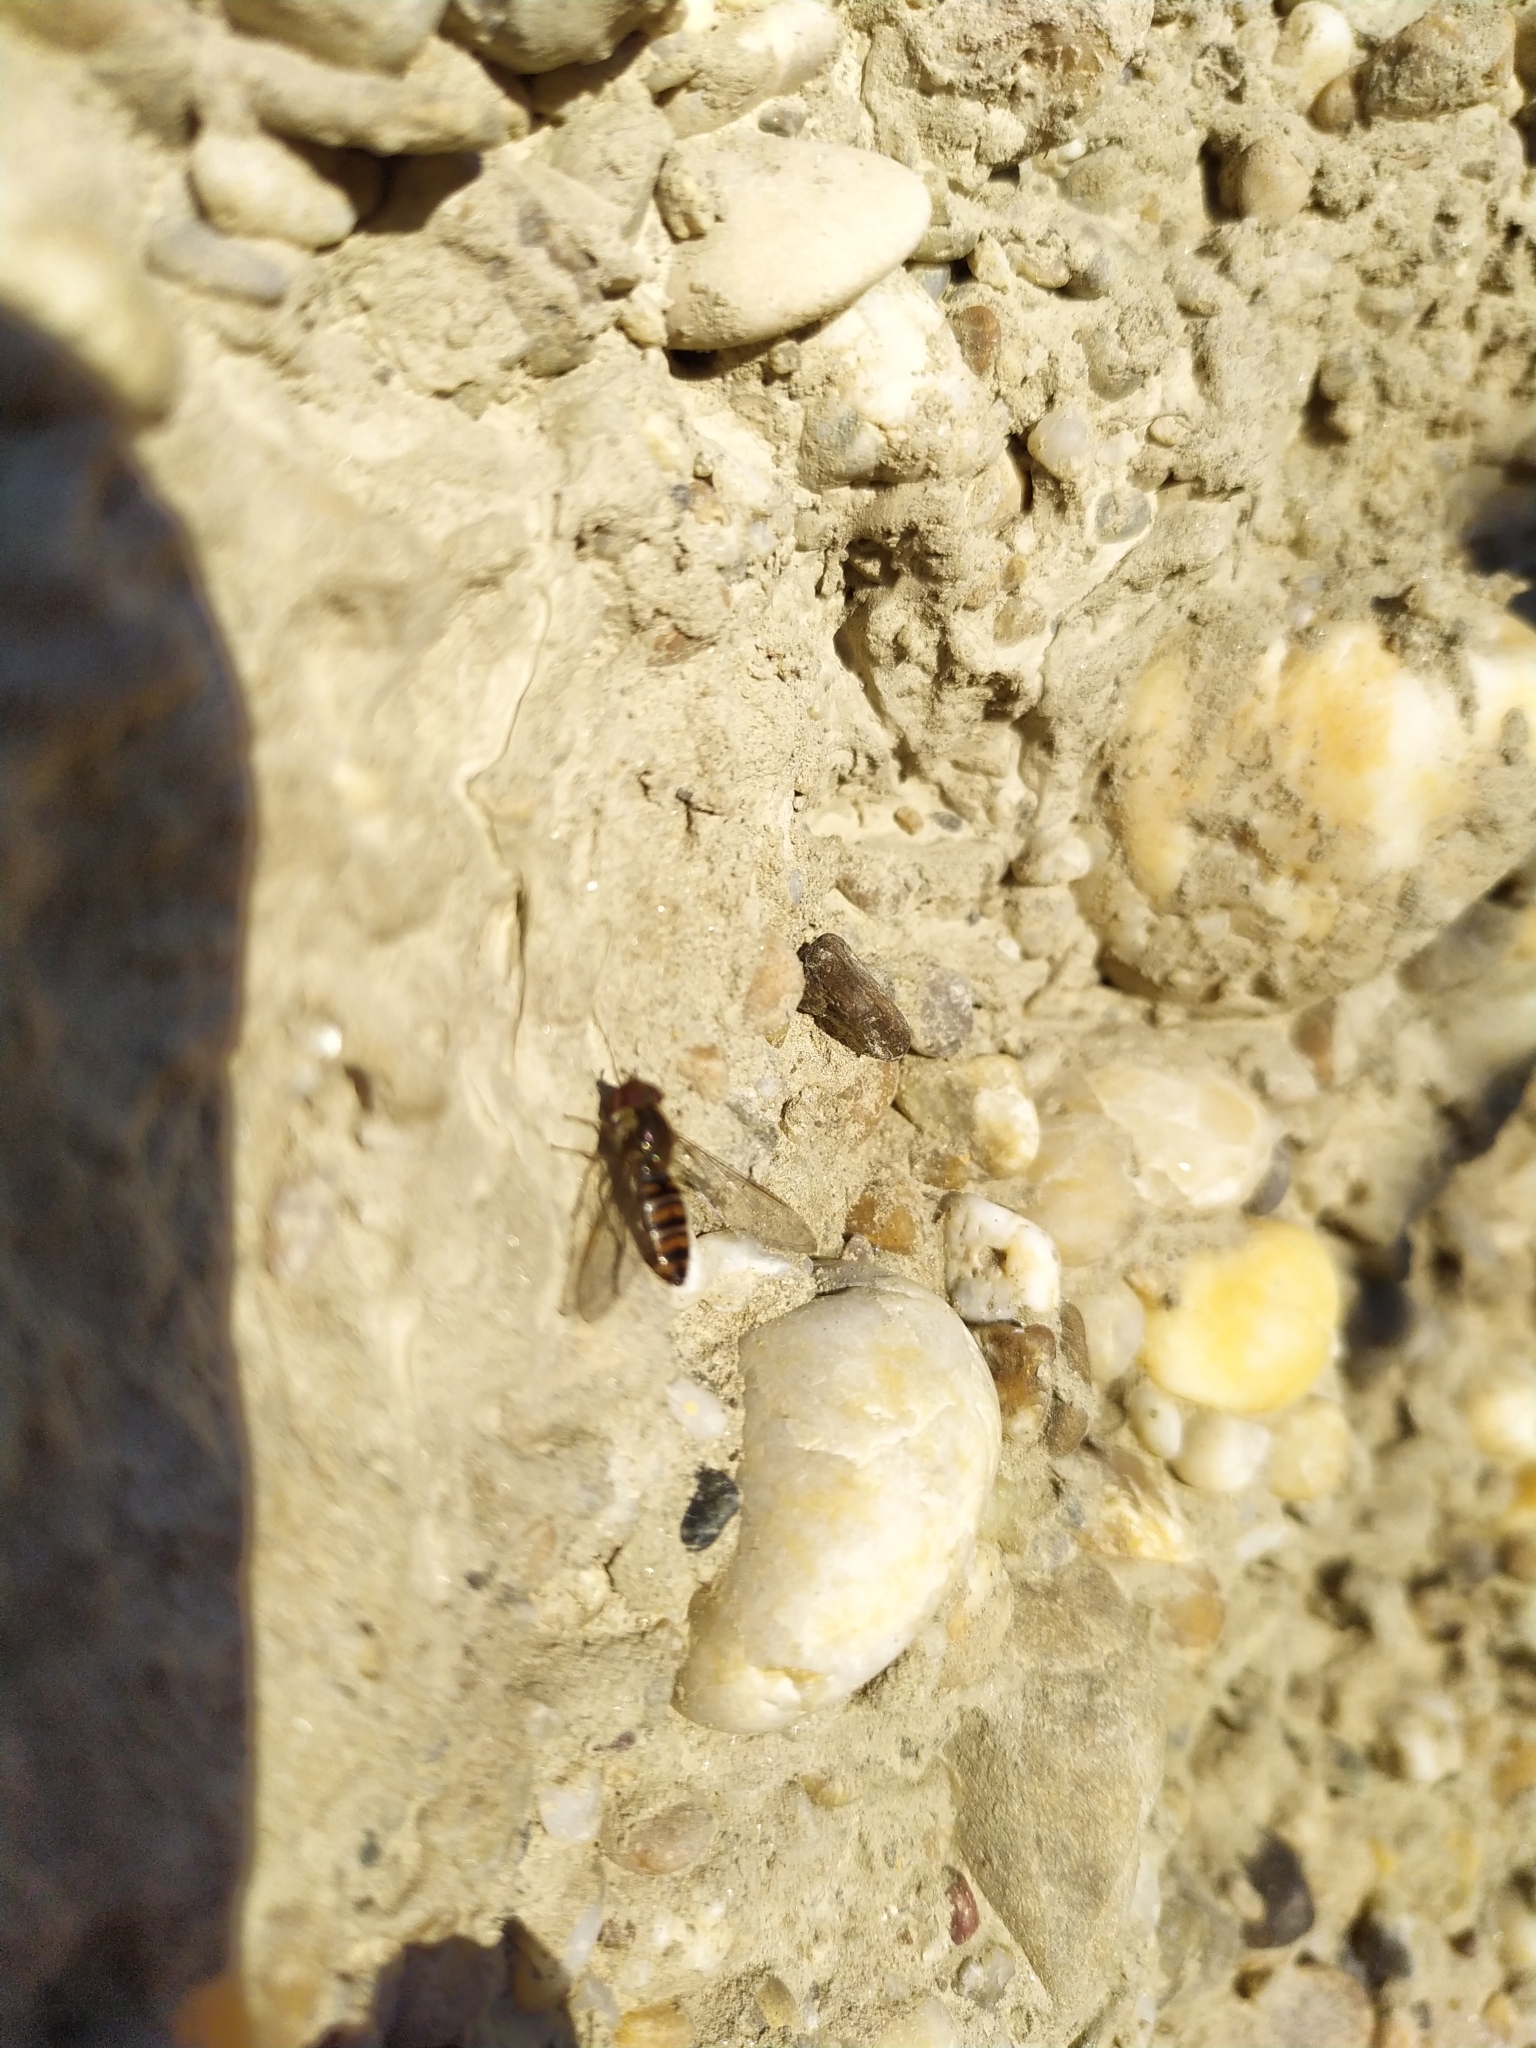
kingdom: Animalia
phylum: Arthropoda
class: Insecta
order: Diptera
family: Syrphidae
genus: Episyrphus
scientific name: Episyrphus balteatus
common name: Marmalade hoverfly
